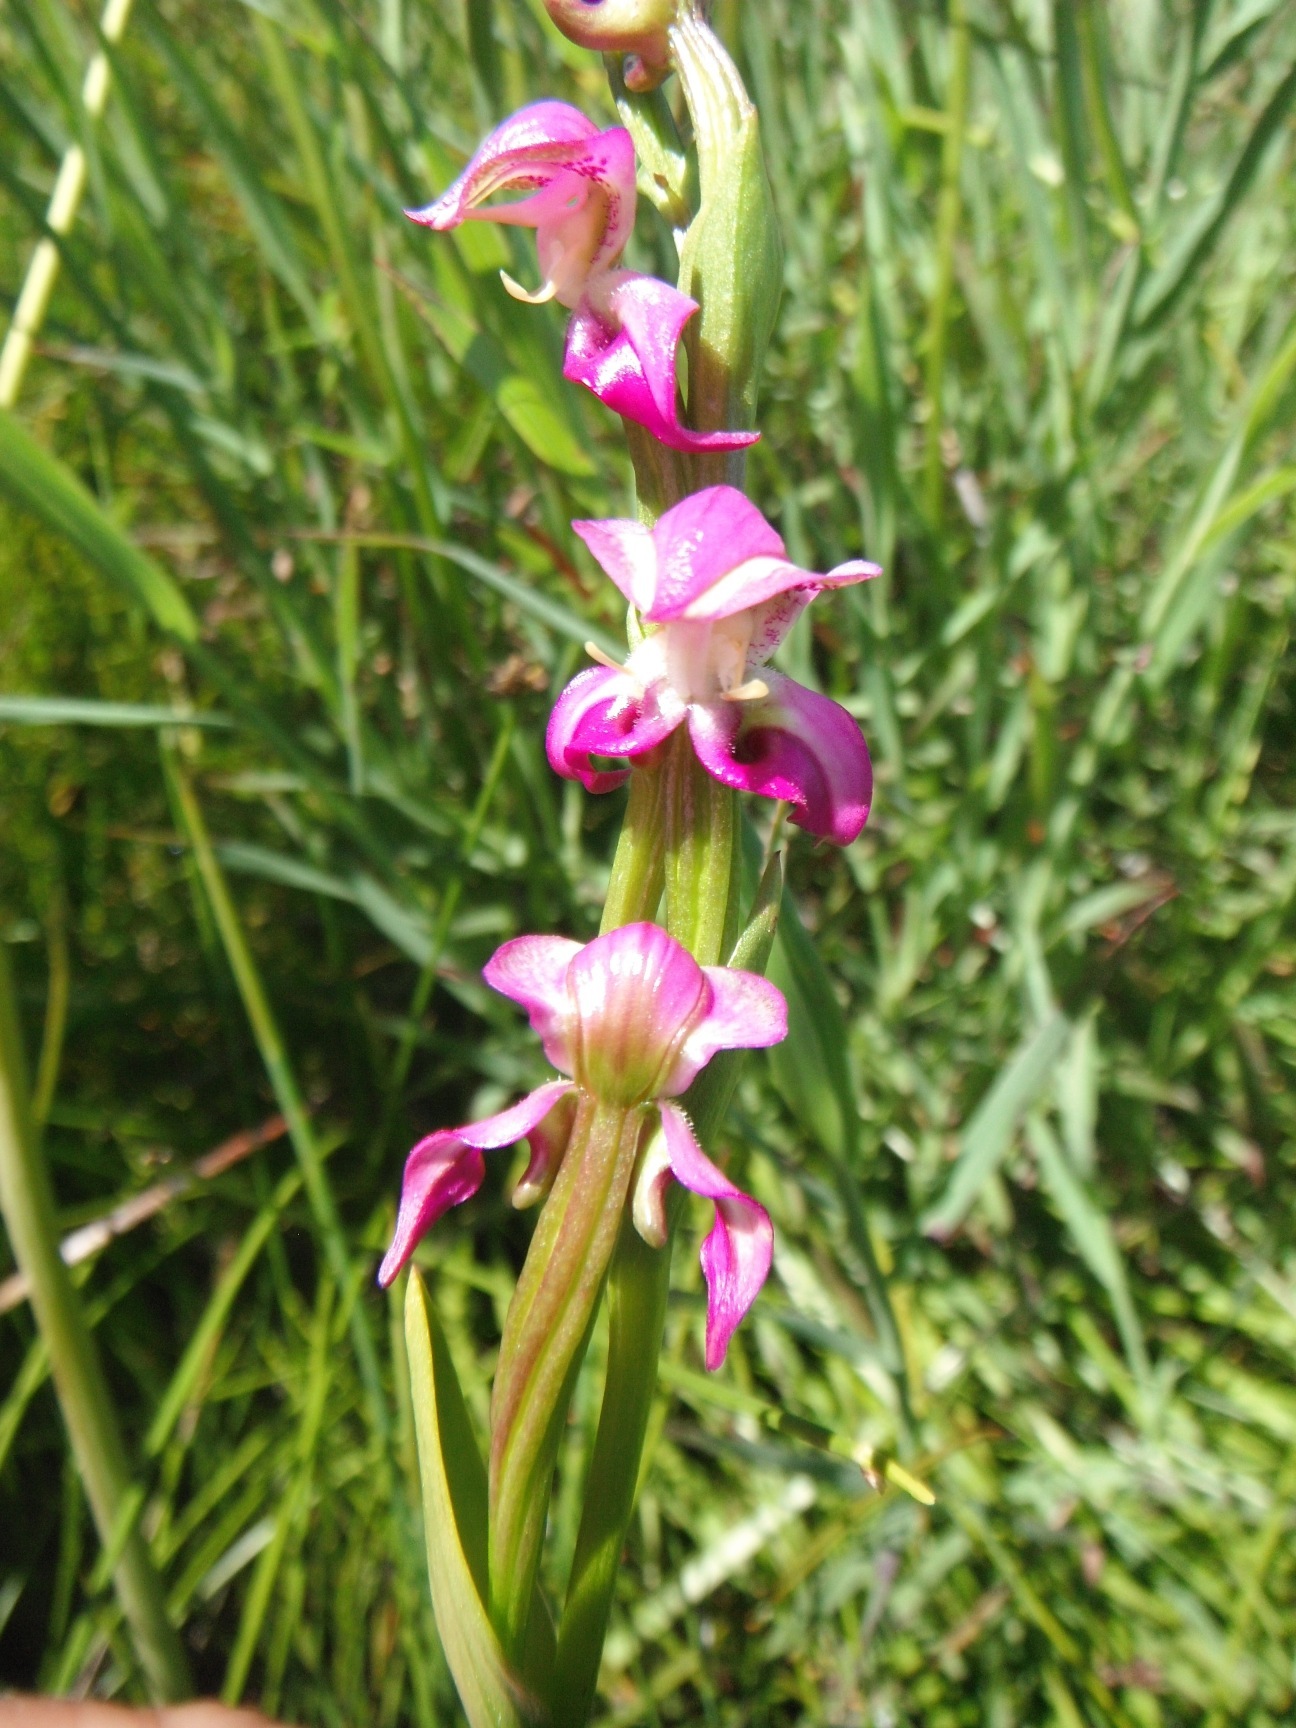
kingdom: Plantae
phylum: Tracheophyta
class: Liliopsida
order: Asparagales
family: Orchidaceae
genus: Disperis
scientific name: Disperis paludosa
